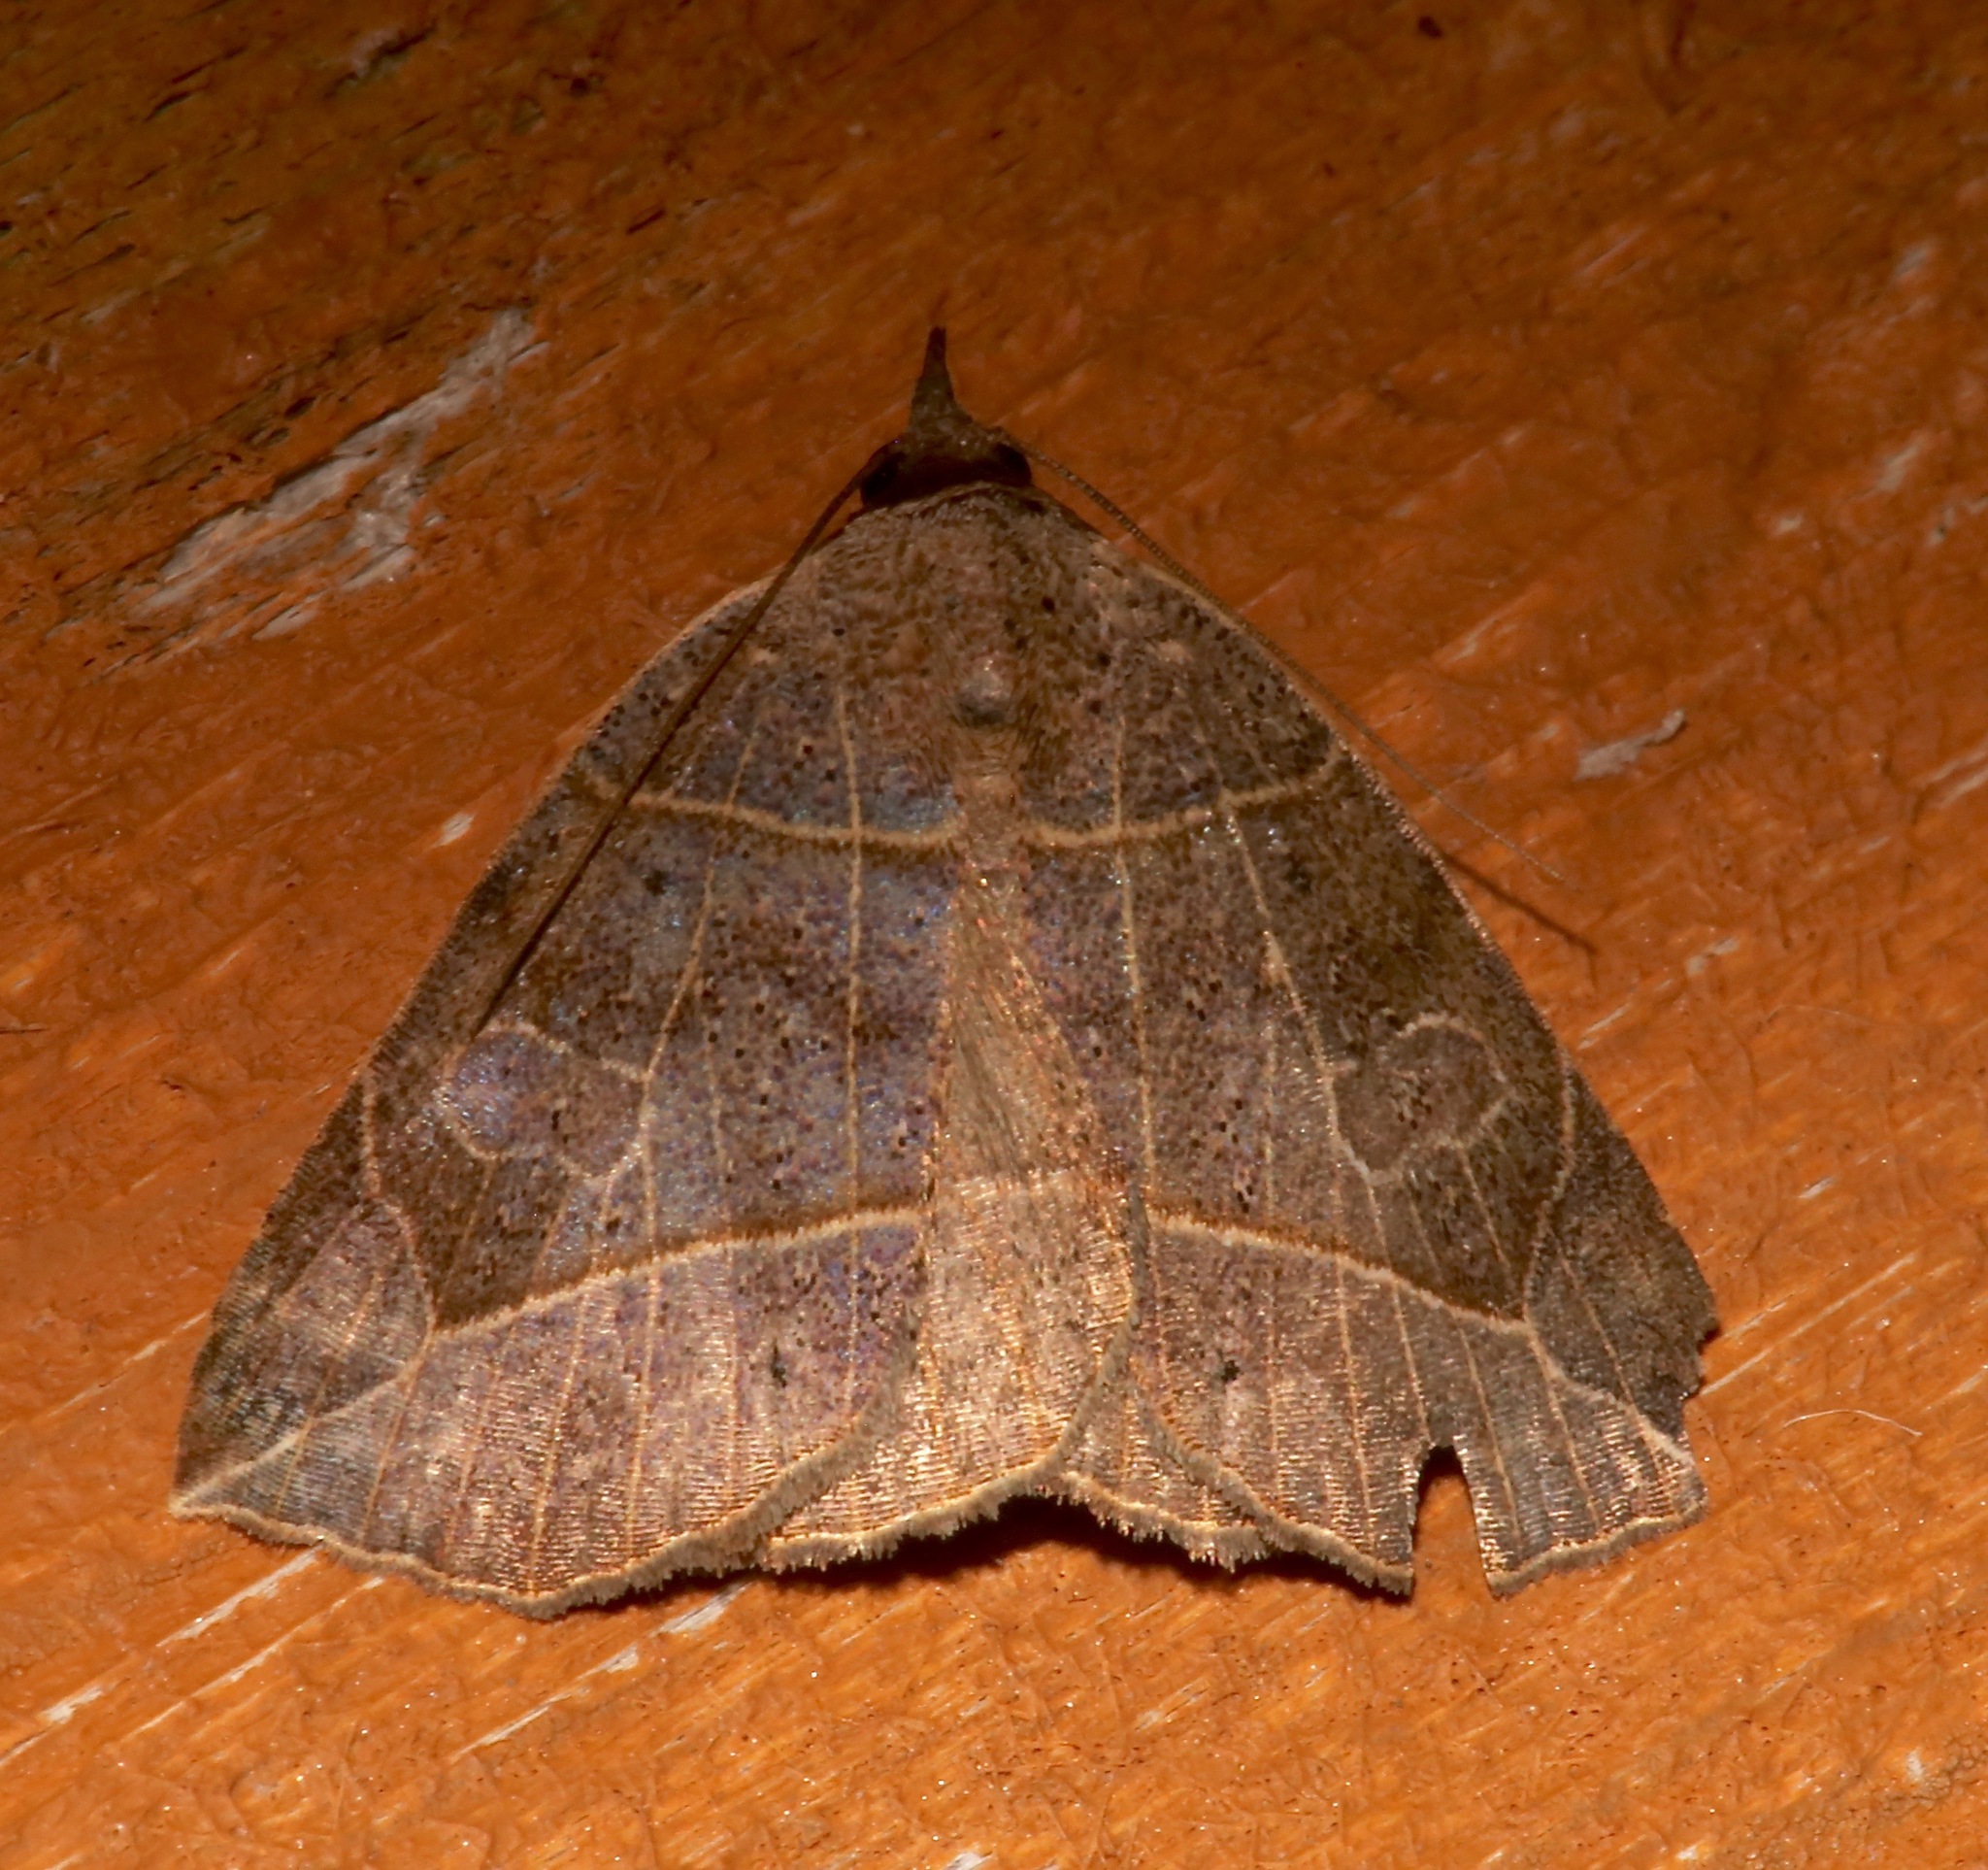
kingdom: Animalia
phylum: Arthropoda
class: Insecta
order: Lepidoptera
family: Erebidae
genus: Isogona
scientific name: Isogona tenuis
